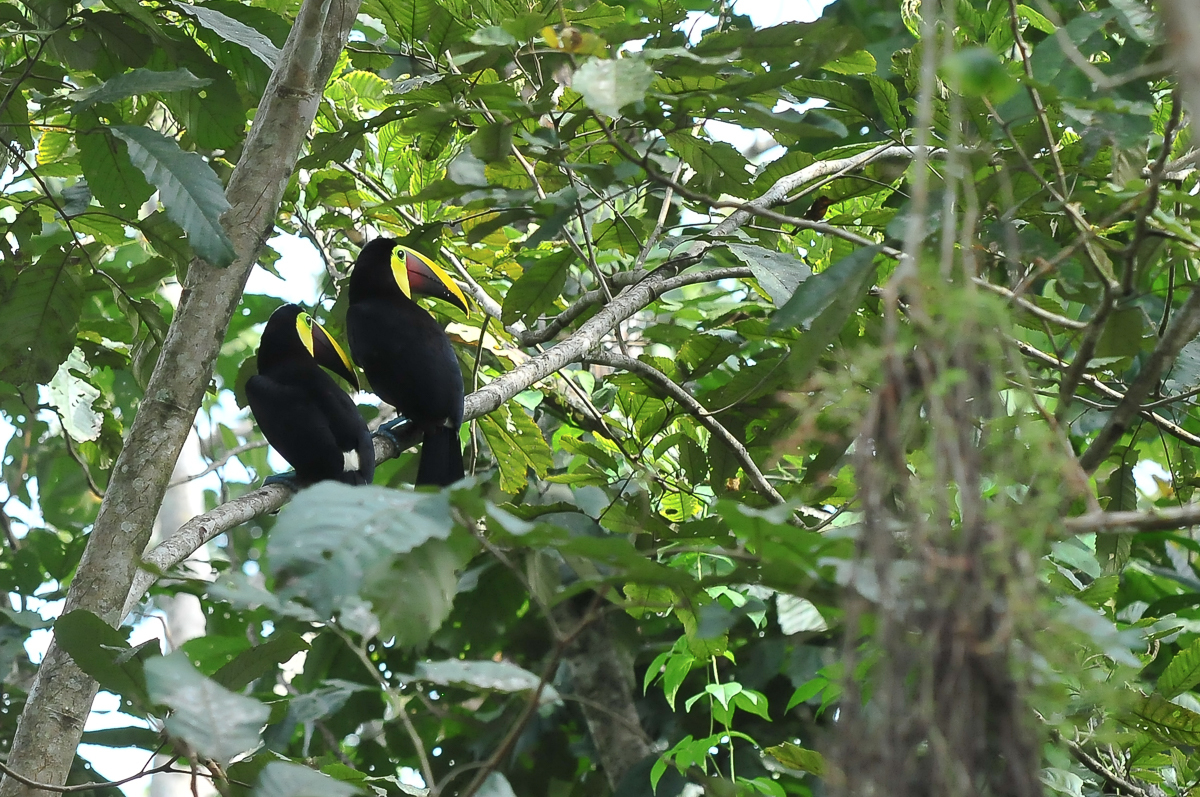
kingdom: Animalia
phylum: Chordata
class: Aves
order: Piciformes
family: Ramphastidae
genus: Ramphastos
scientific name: Ramphastos ambiguus
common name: Yellow-throated toucan
